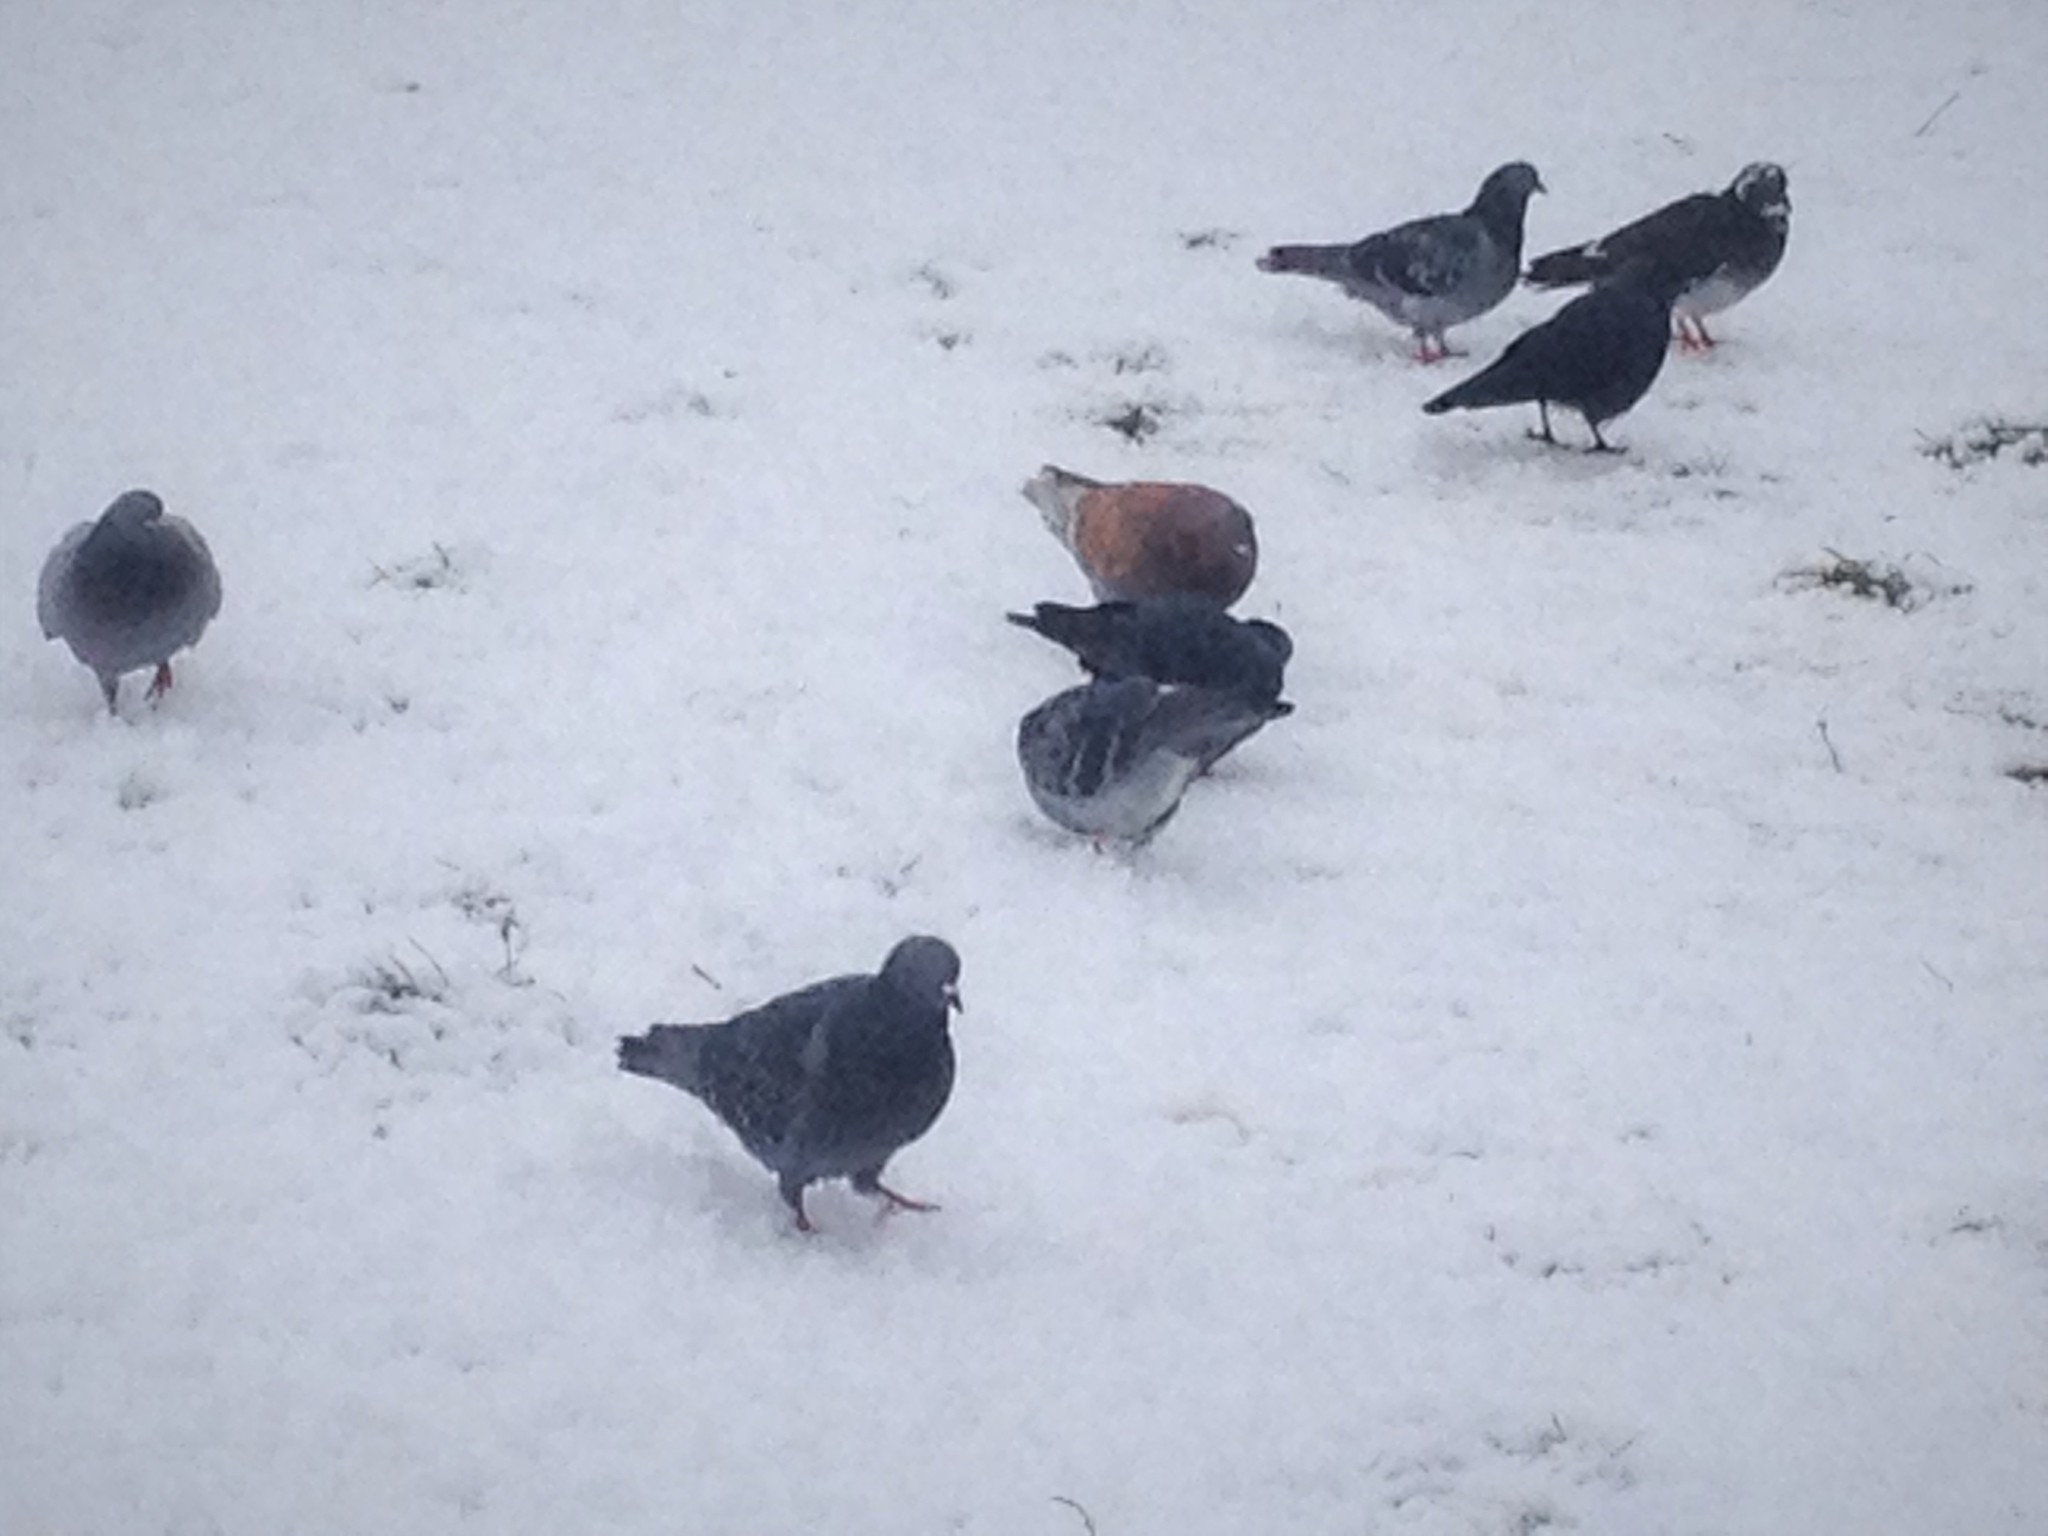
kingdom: Animalia
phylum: Chordata
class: Aves
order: Columbiformes
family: Columbidae
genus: Columba
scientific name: Columba livia
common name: Rock pigeon
